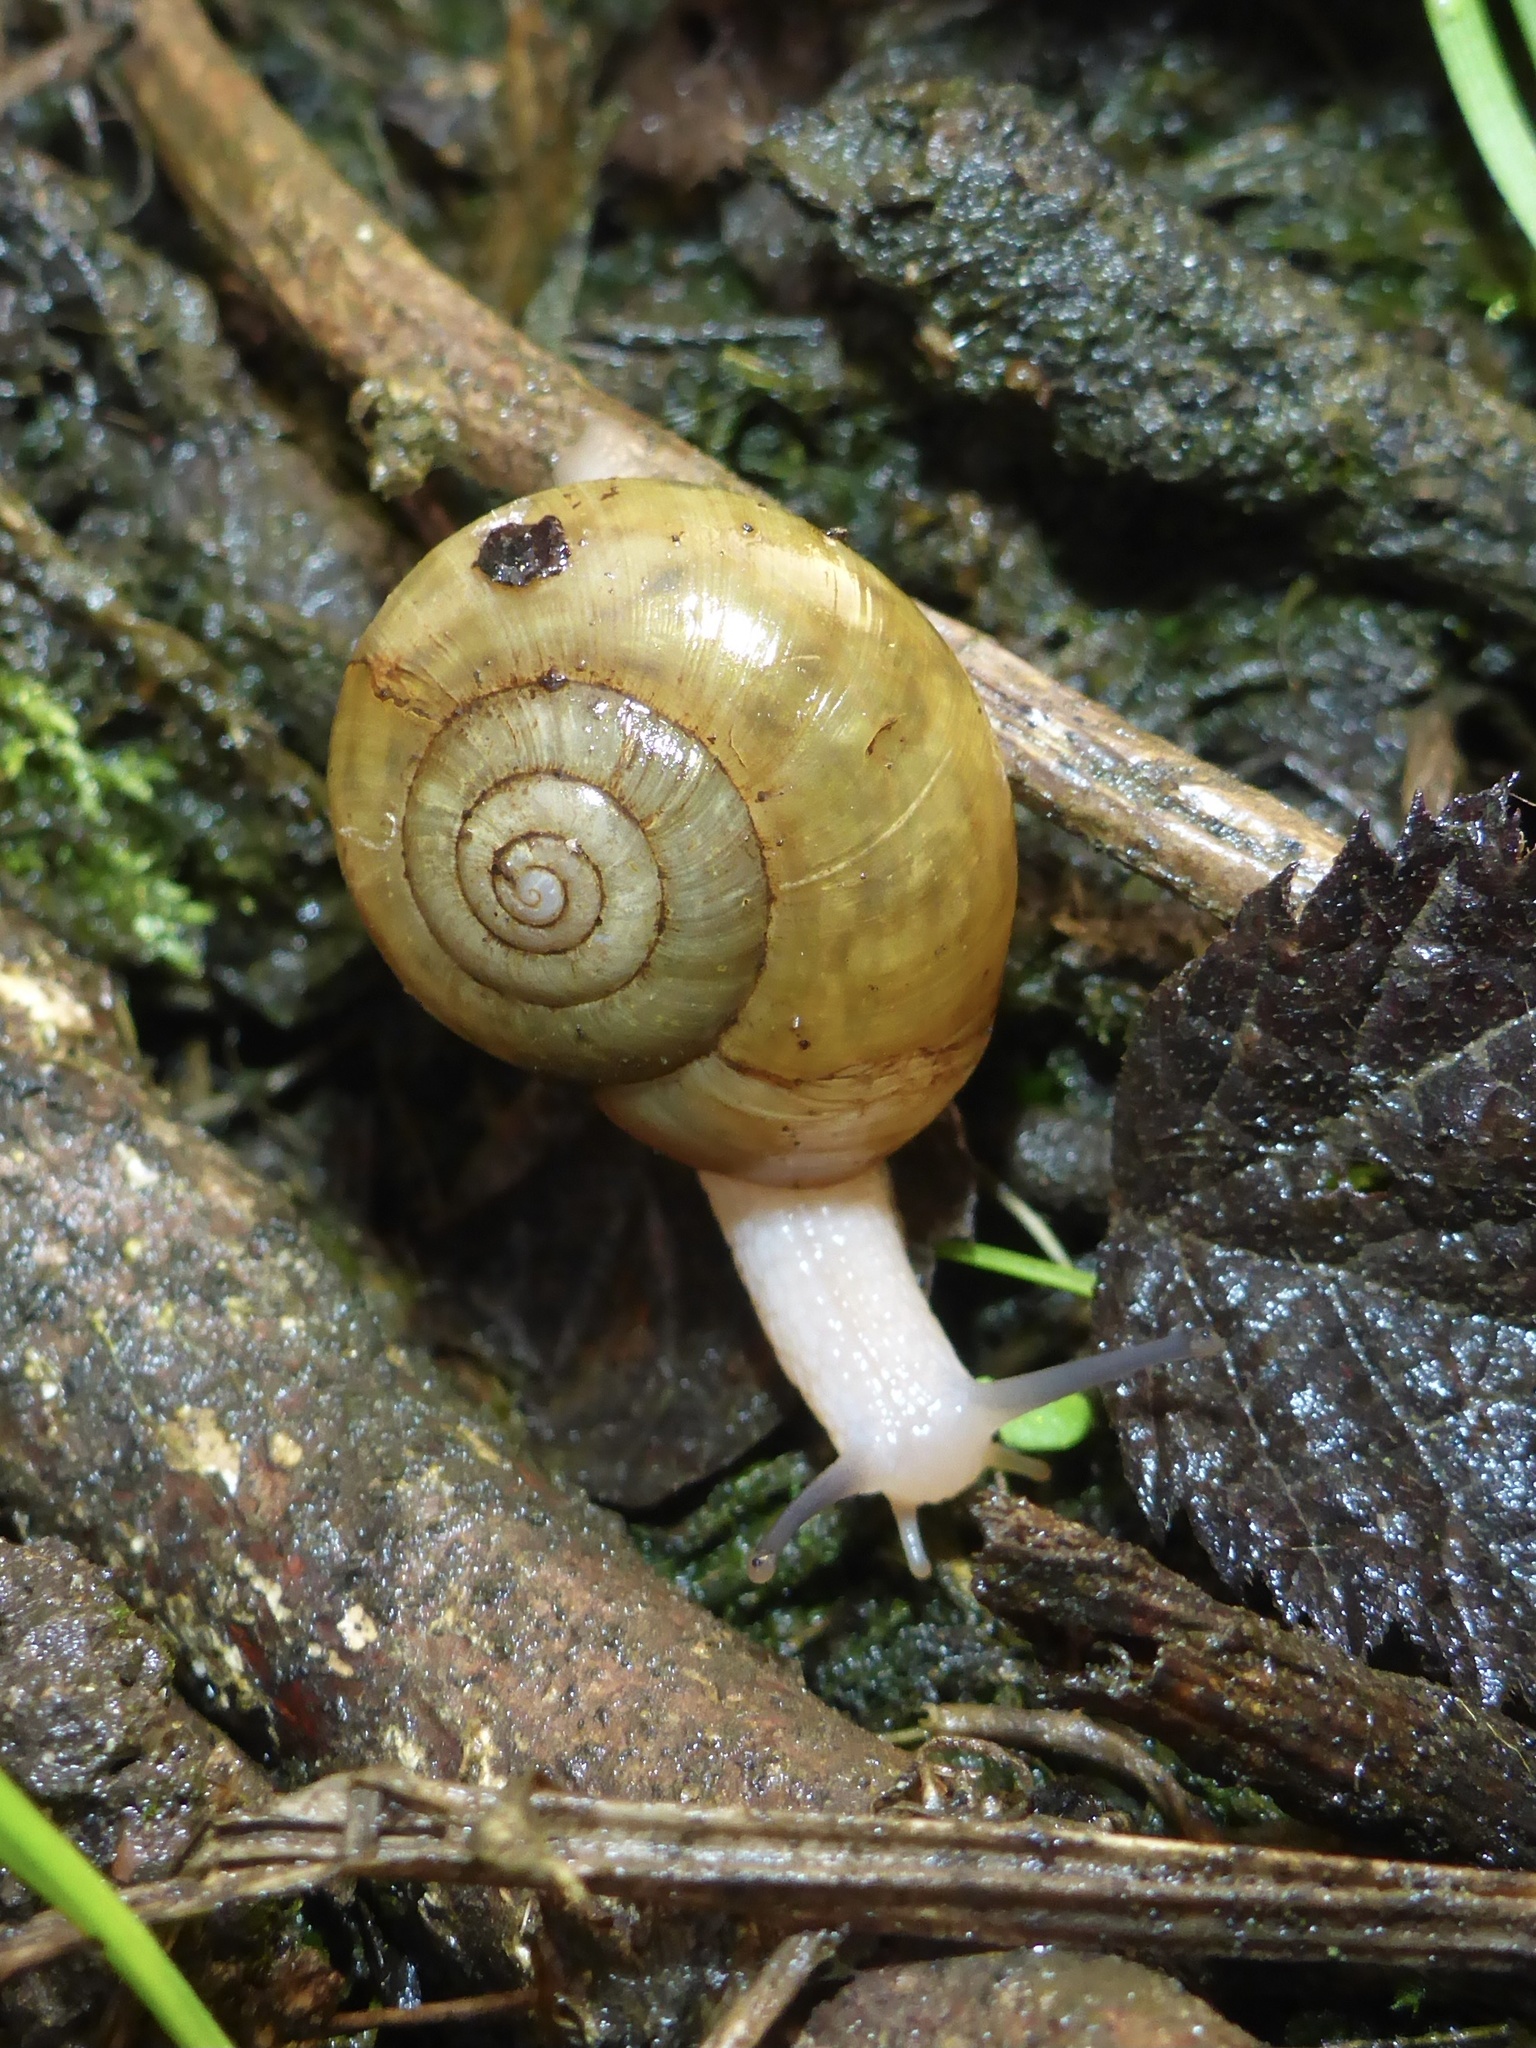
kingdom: Animalia
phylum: Mollusca
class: Gastropoda
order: Stylommatophora
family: Haplotrematidae
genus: Haplotrema
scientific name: Haplotrema minimum
